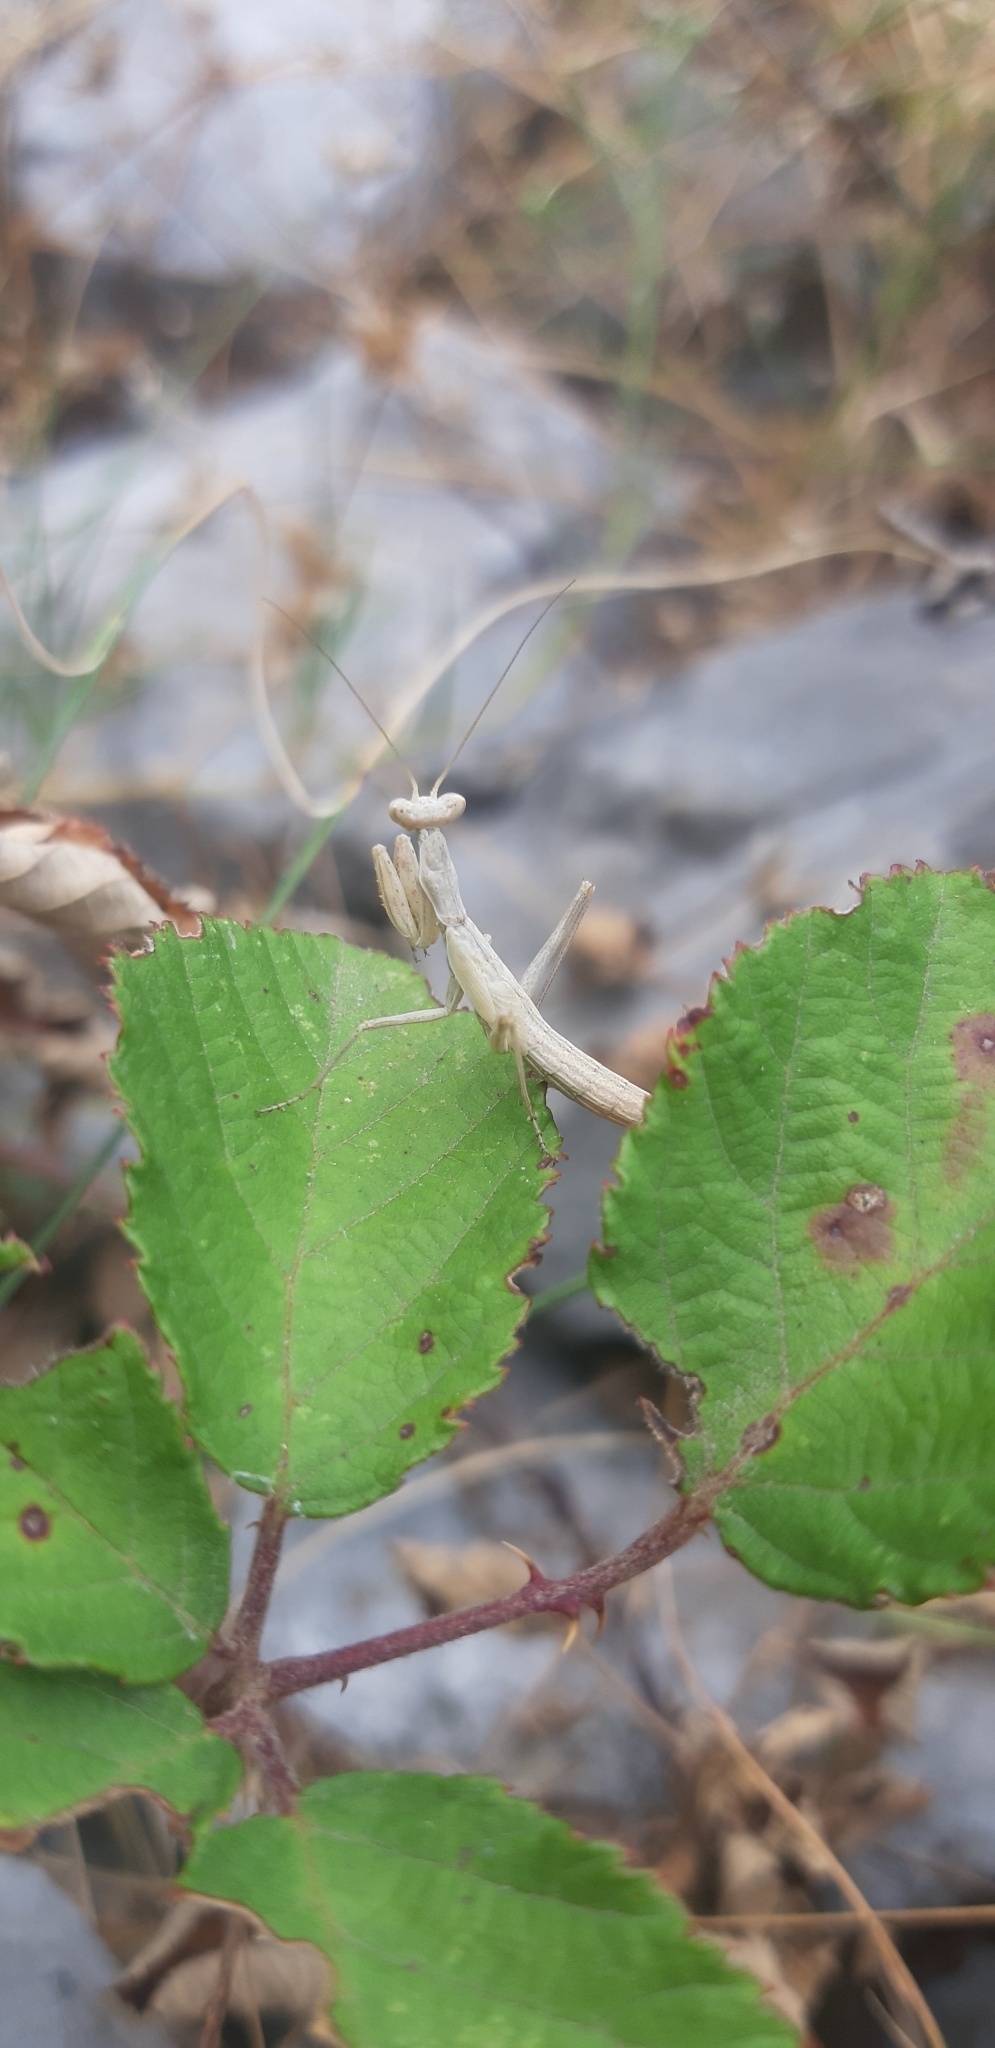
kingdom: Animalia
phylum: Arthropoda
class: Insecta
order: Mantodea
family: Amelidae
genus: Ameles
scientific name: Ameles decolor
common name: Dwarf mantis
